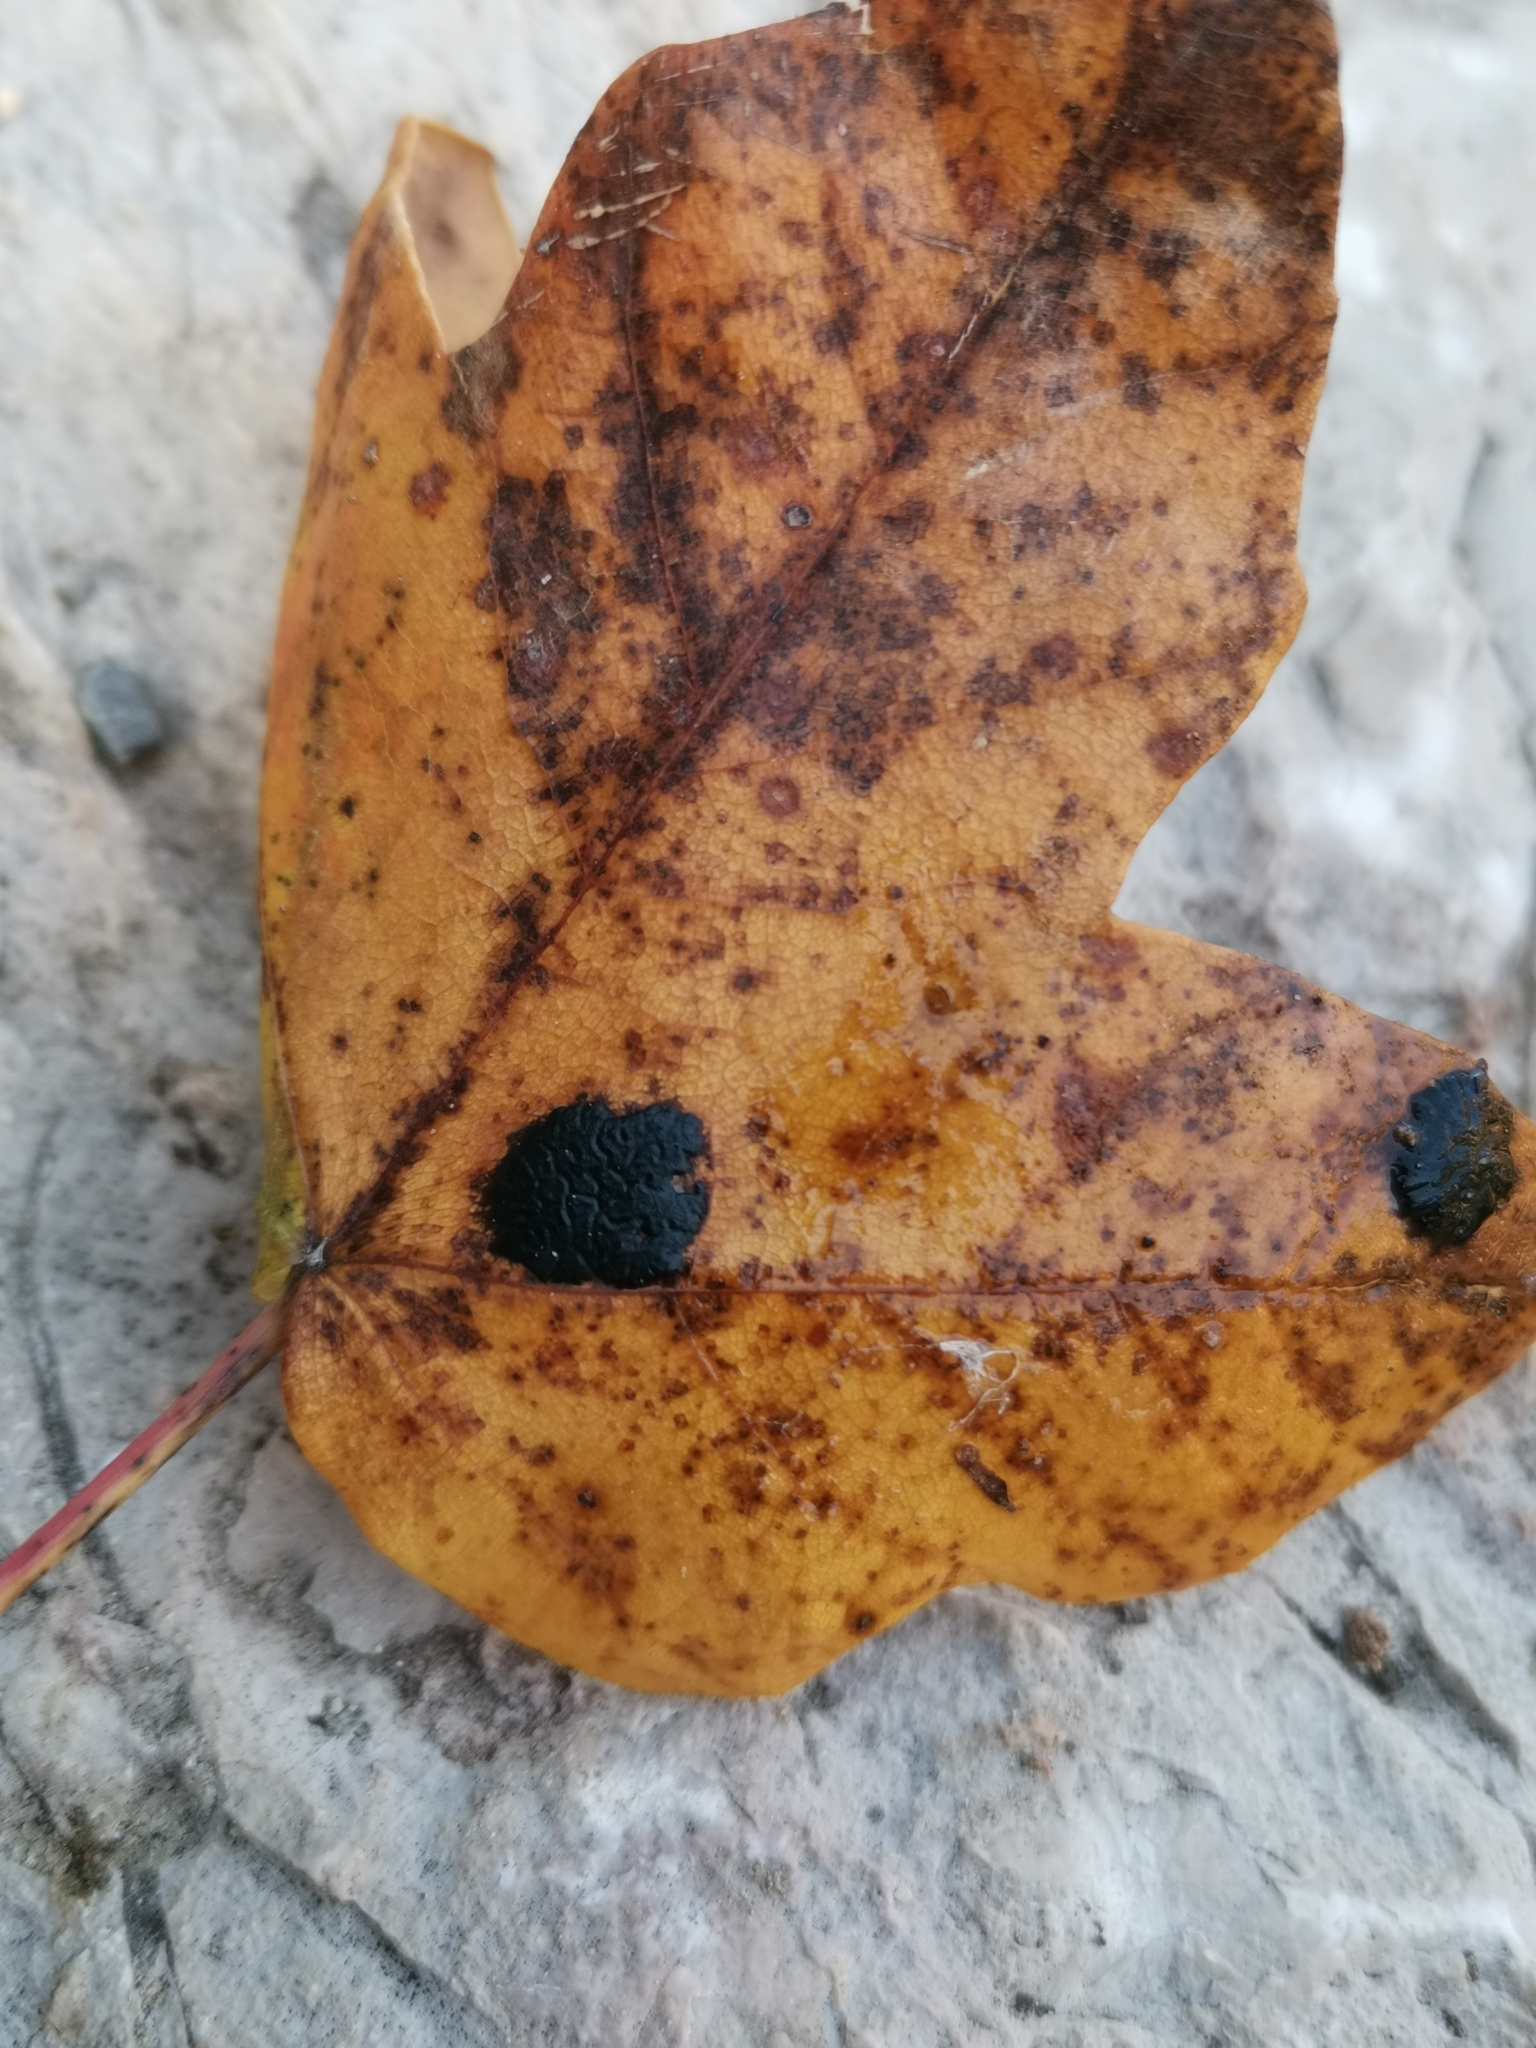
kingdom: Fungi
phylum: Ascomycota
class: Leotiomycetes
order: Rhytismatales
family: Rhytismataceae
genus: Rhytisma
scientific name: Rhytisma acerinum
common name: European tar spot
